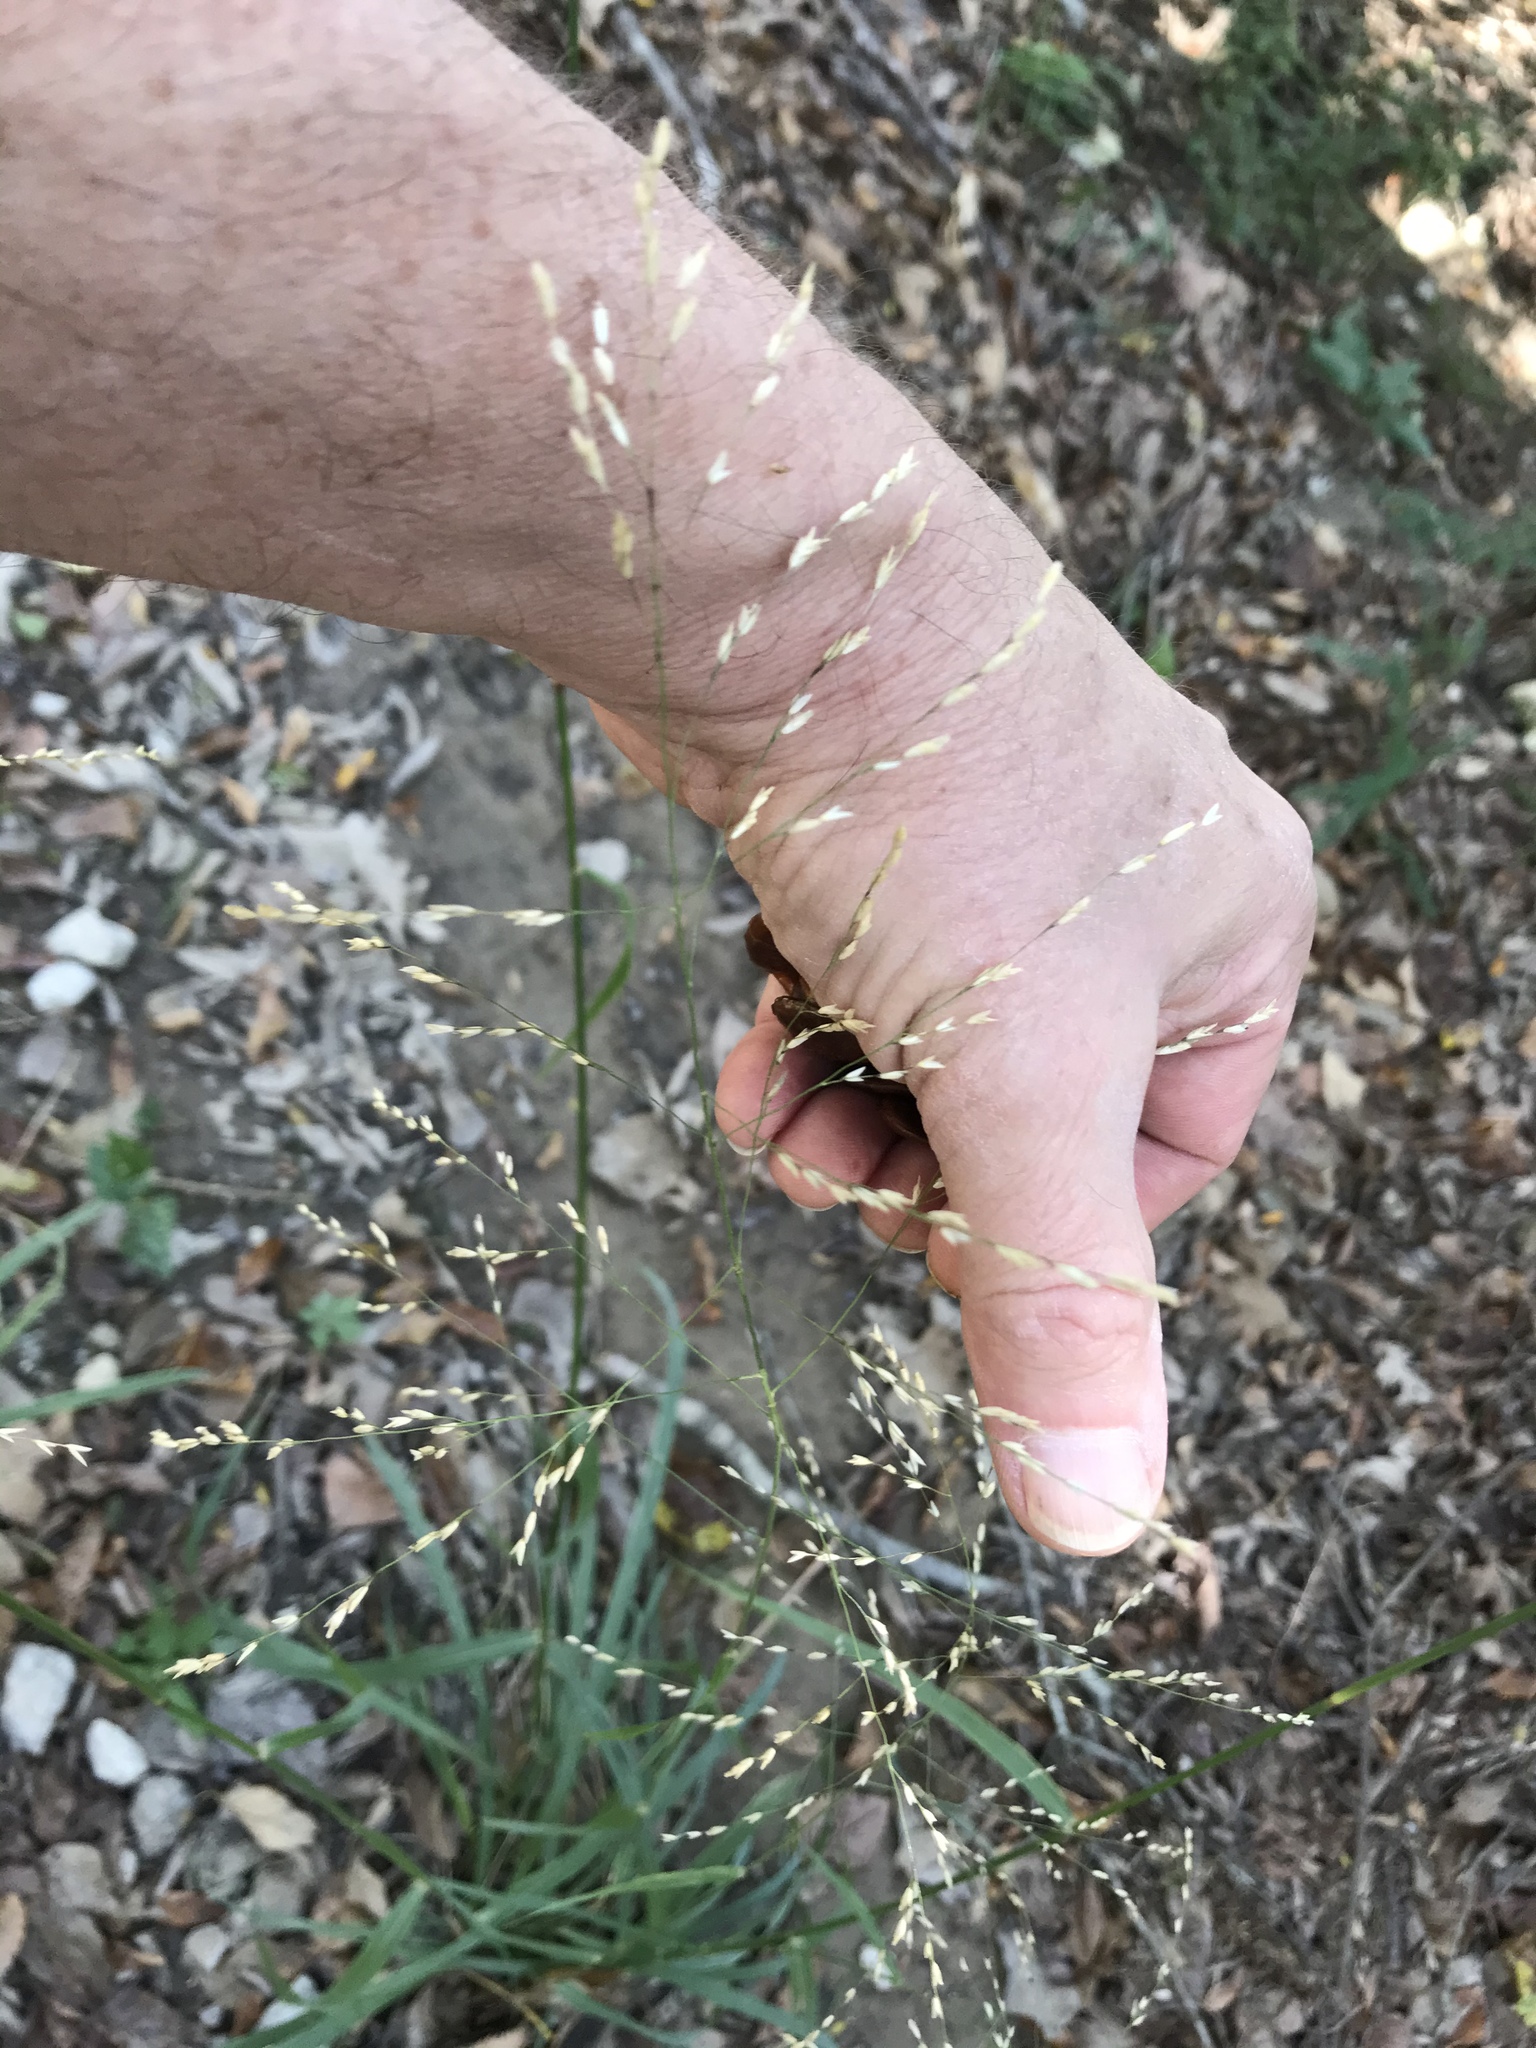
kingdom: Plantae
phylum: Tracheophyta
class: Liliopsida
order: Poales
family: Poaceae
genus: Tridens
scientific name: Tridens flavus
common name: Purpletop
